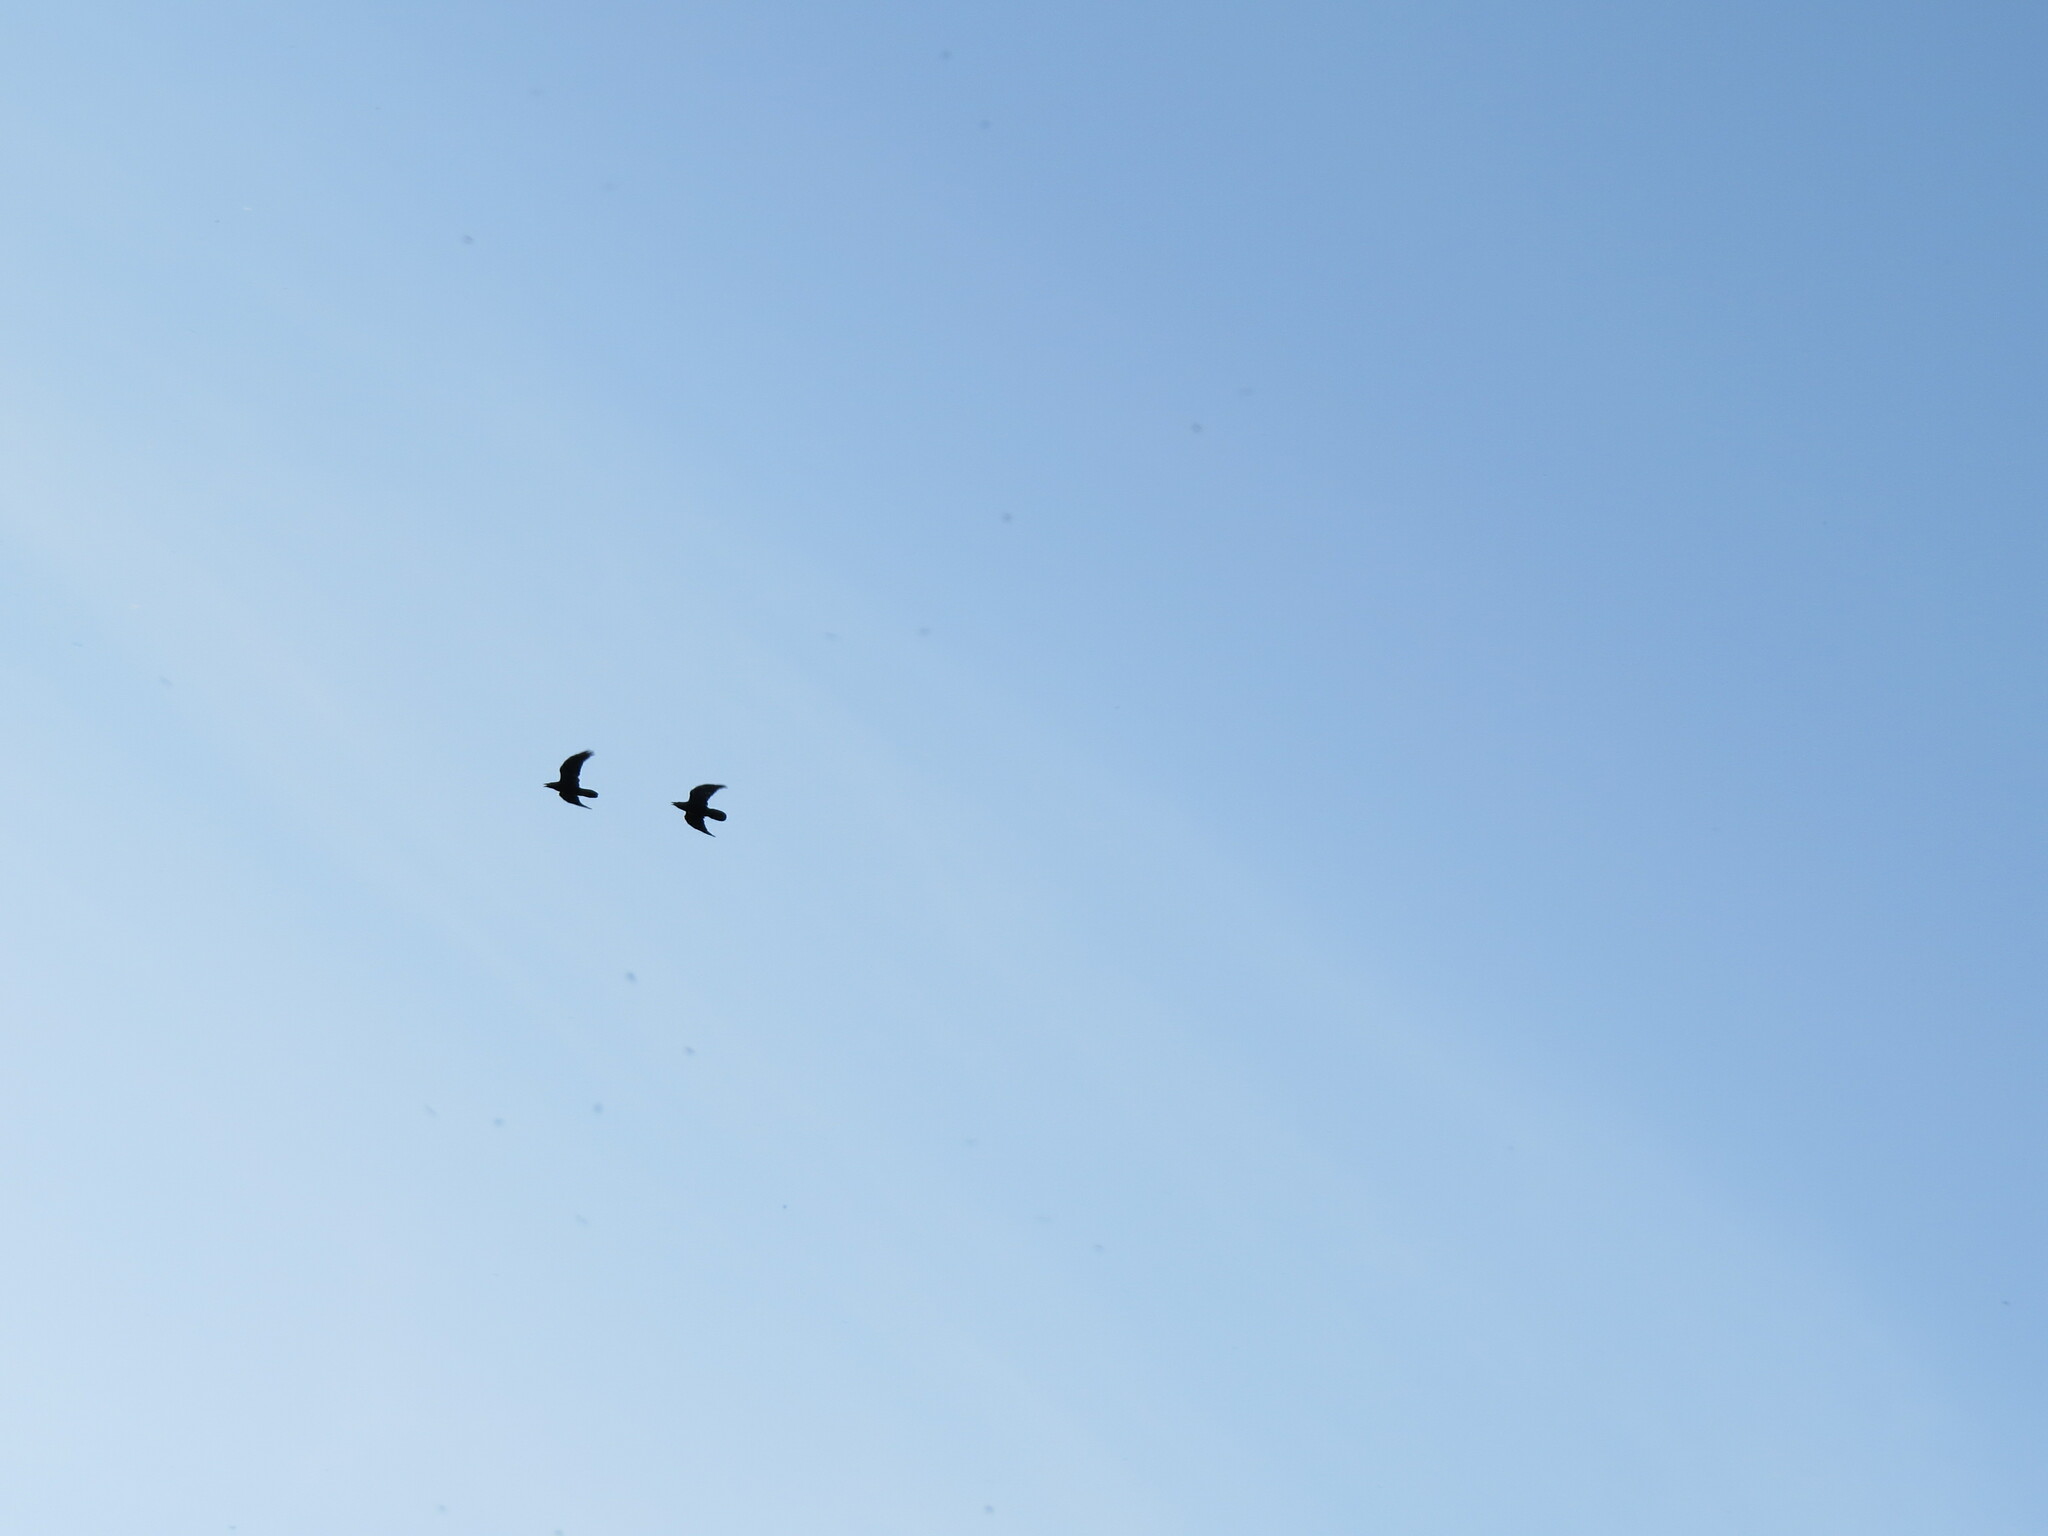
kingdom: Animalia
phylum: Chordata
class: Aves
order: Passeriformes
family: Corvidae
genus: Corvus
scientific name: Corvus corax
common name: Common raven
